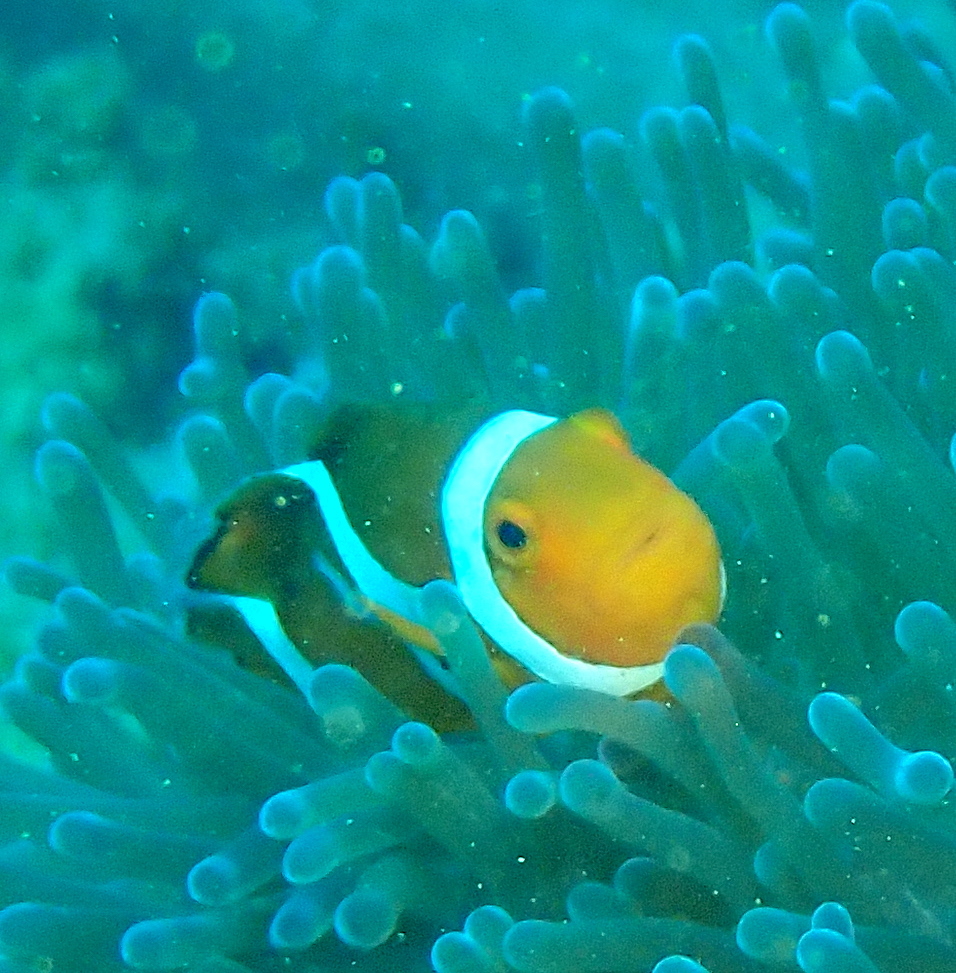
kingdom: Animalia
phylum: Chordata
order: Perciformes
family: Pomacentridae
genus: Amphiprion
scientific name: Amphiprion ocellaris
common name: Clown anemonefish
